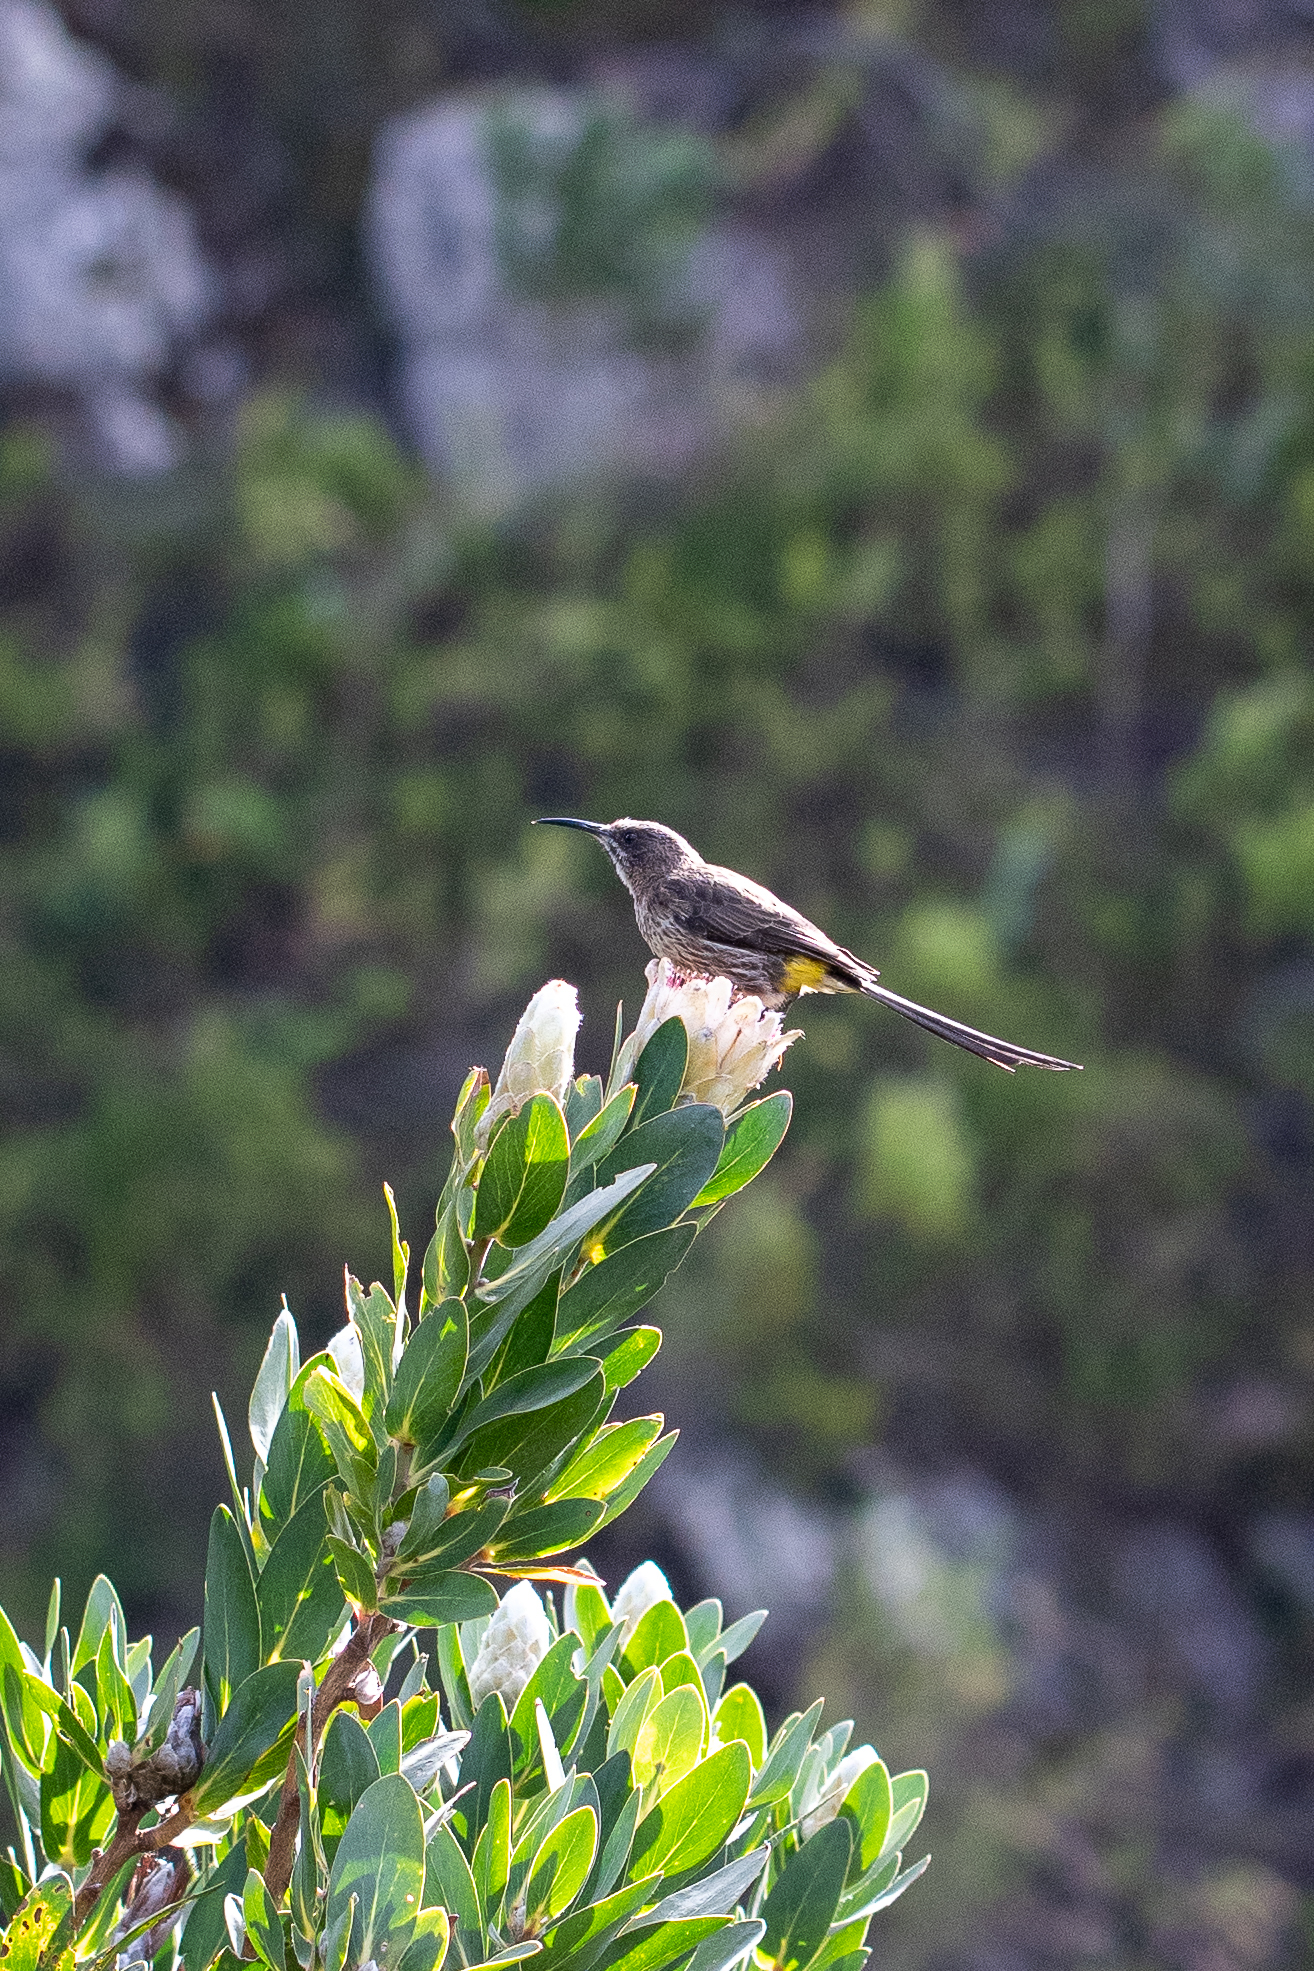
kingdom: Animalia
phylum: Chordata
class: Aves
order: Passeriformes
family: Promeropidae
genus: Promerops
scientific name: Promerops cafer
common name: Cape sugarbird
